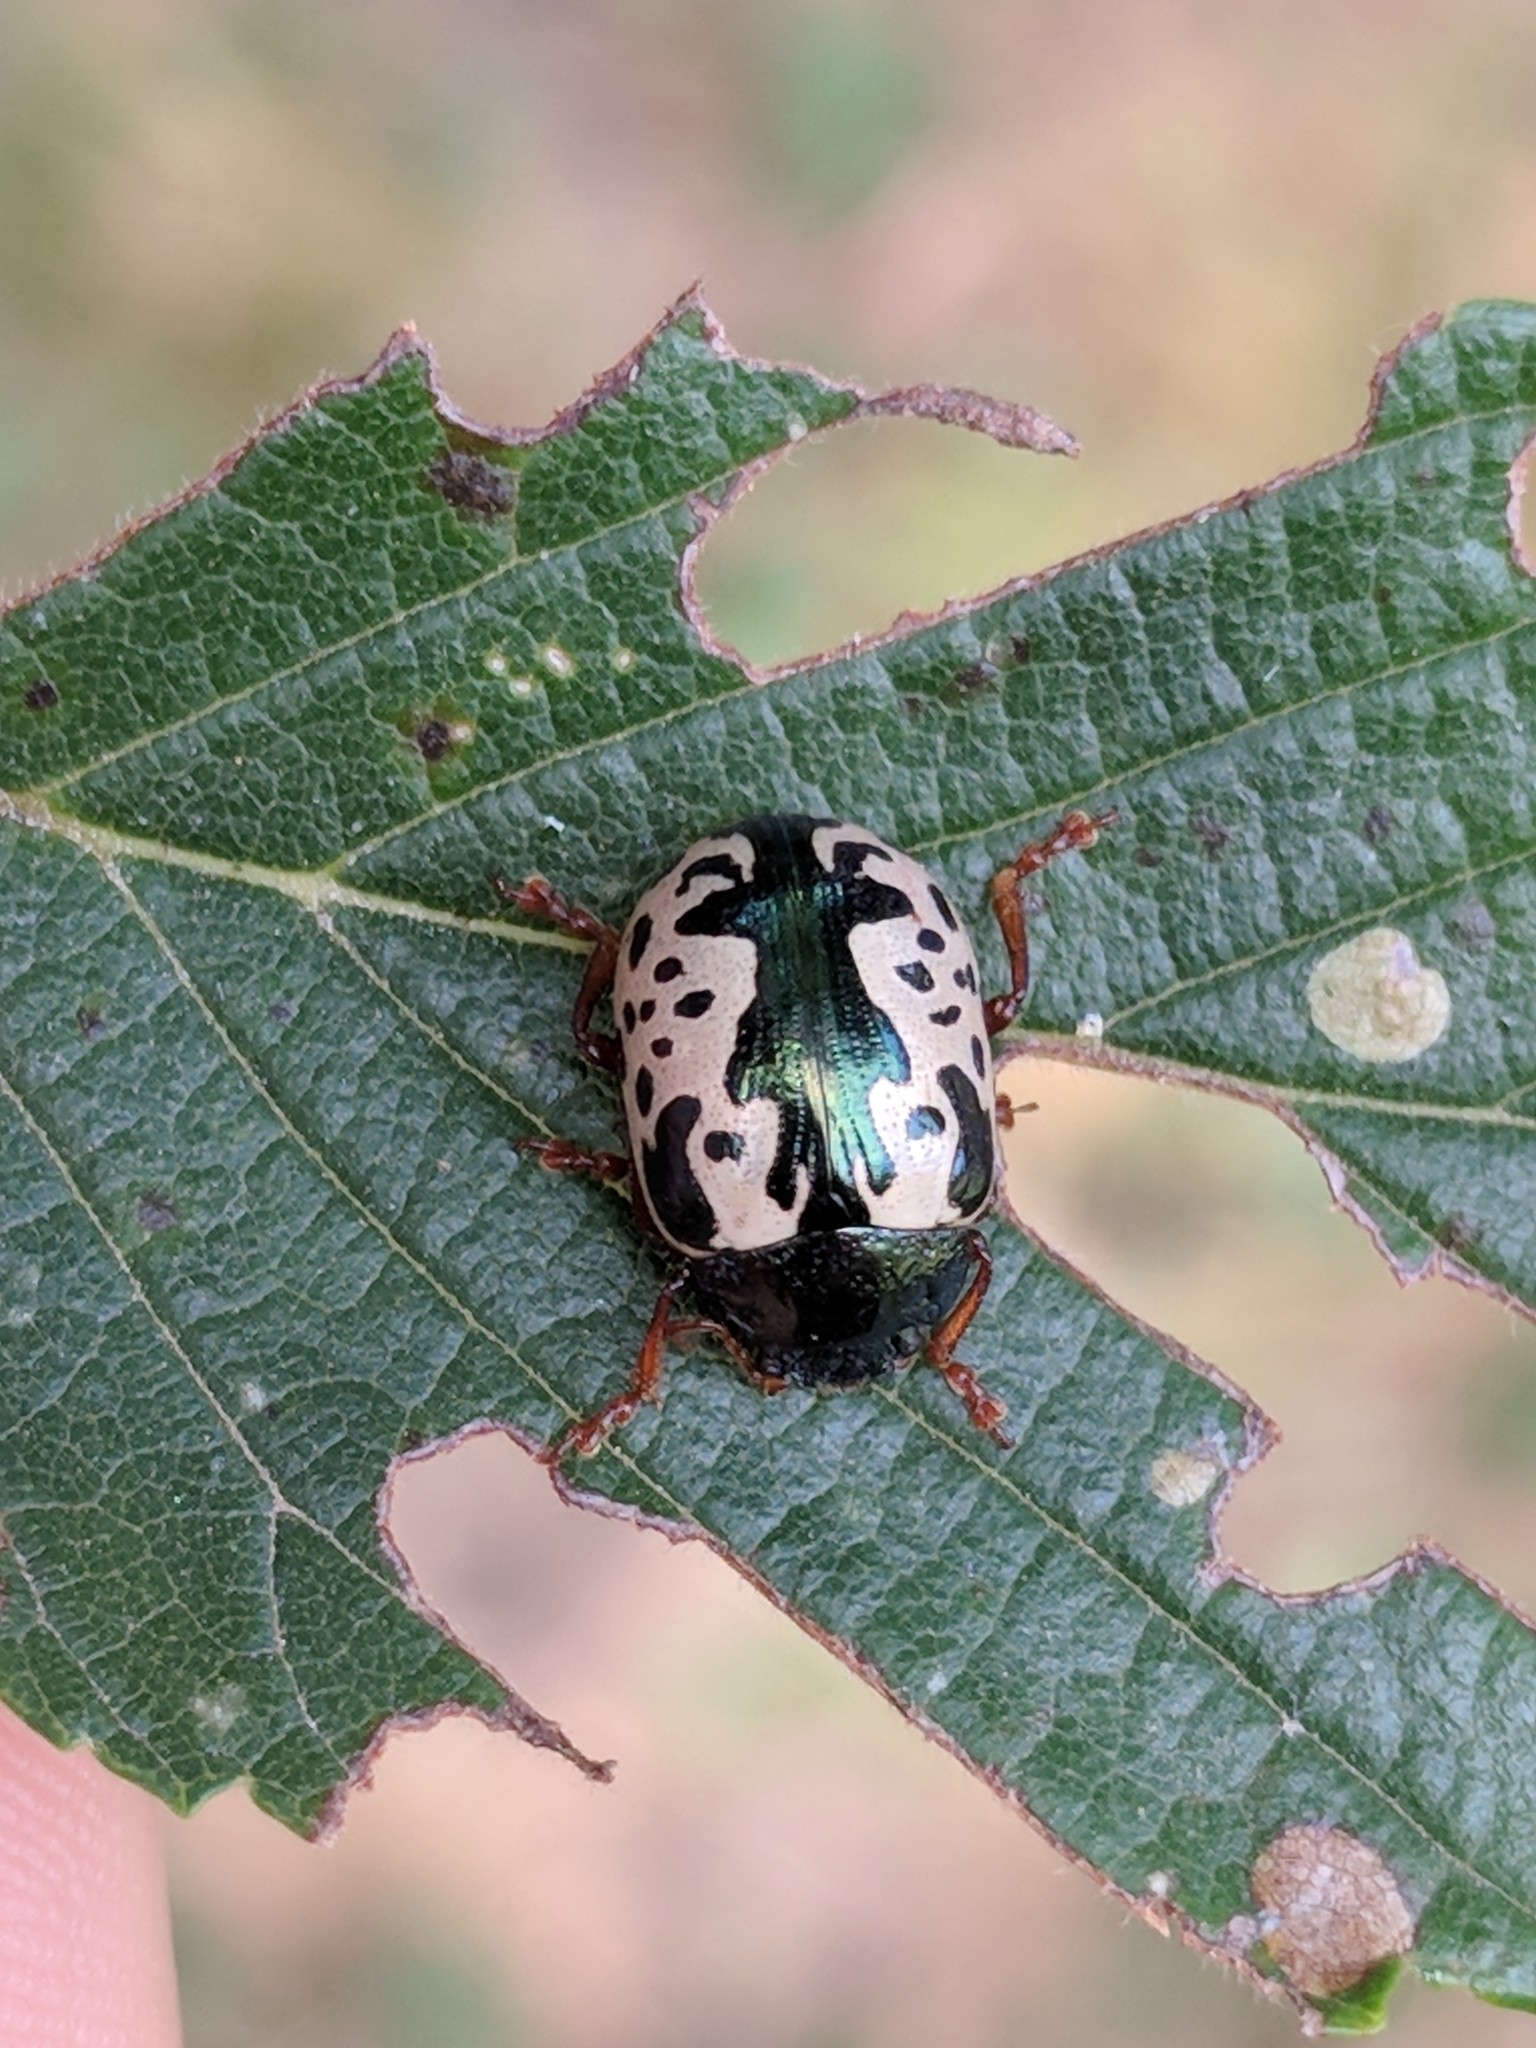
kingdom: Animalia
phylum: Arthropoda
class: Insecta
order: Coleoptera
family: Chrysomelidae
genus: Calligrapha
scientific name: Calligrapha scalaris
